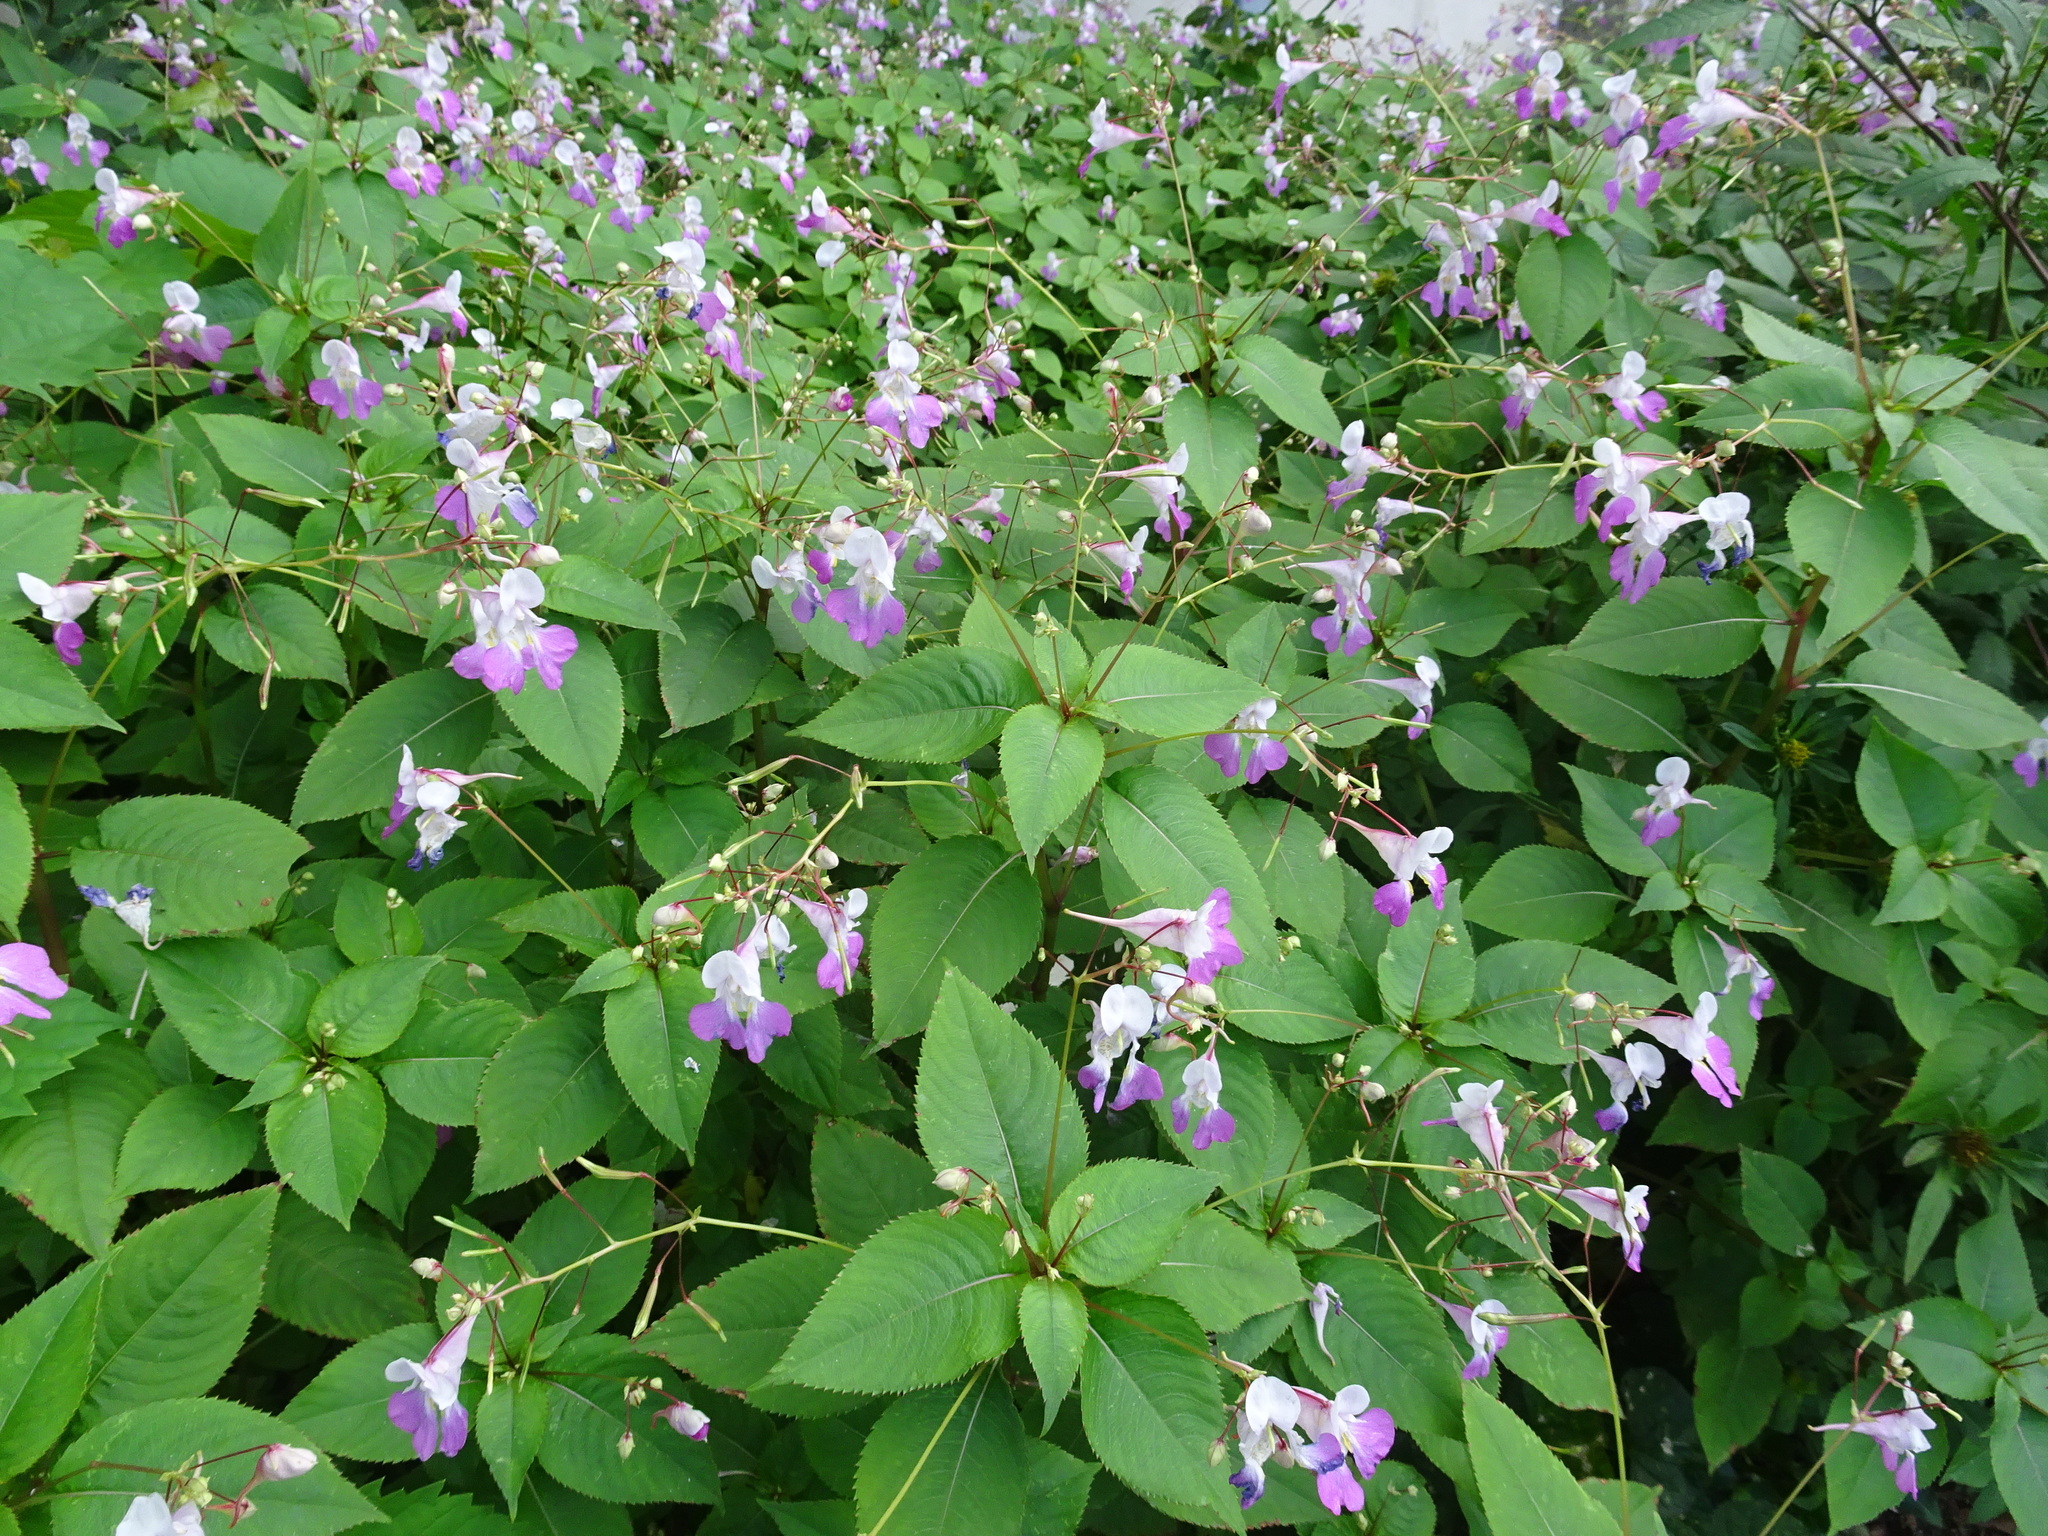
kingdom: Plantae
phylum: Tracheophyta
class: Magnoliopsida
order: Ericales
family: Balsaminaceae
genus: Impatiens
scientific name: Impatiens balfourii
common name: Balfour's touch-me-not
